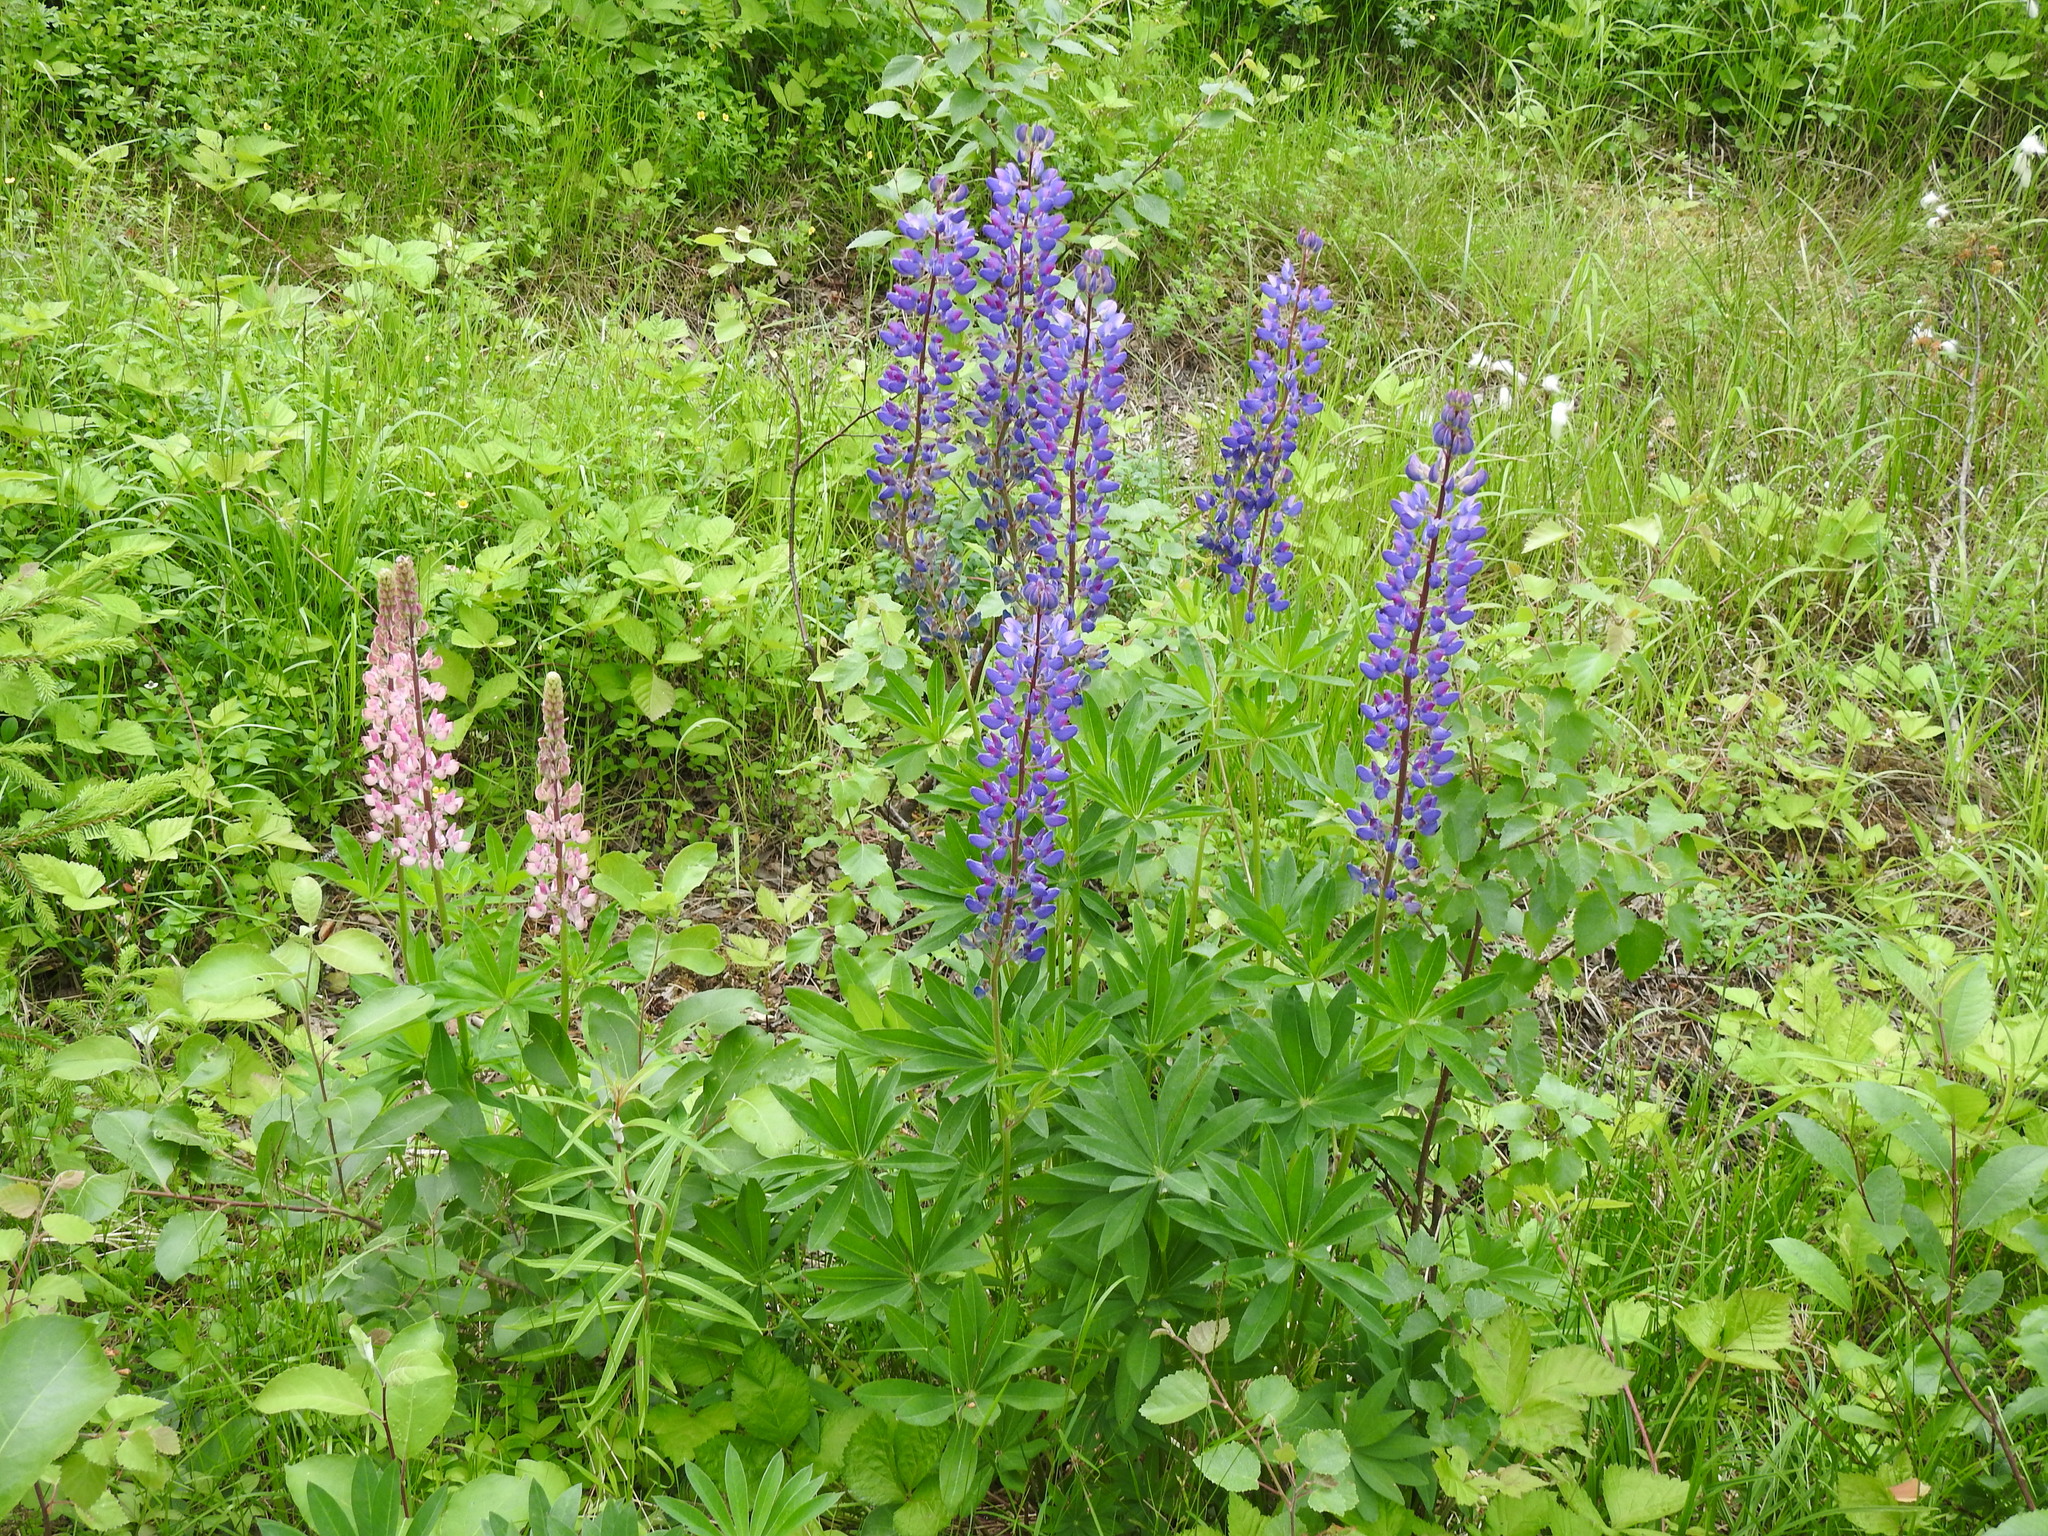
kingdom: Plantae
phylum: Tracheophyta
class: Magnoliopsida
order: Fabales
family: Fabaceae
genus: Lupinus
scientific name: Lupinus polyphyllus
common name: Garden lupin
